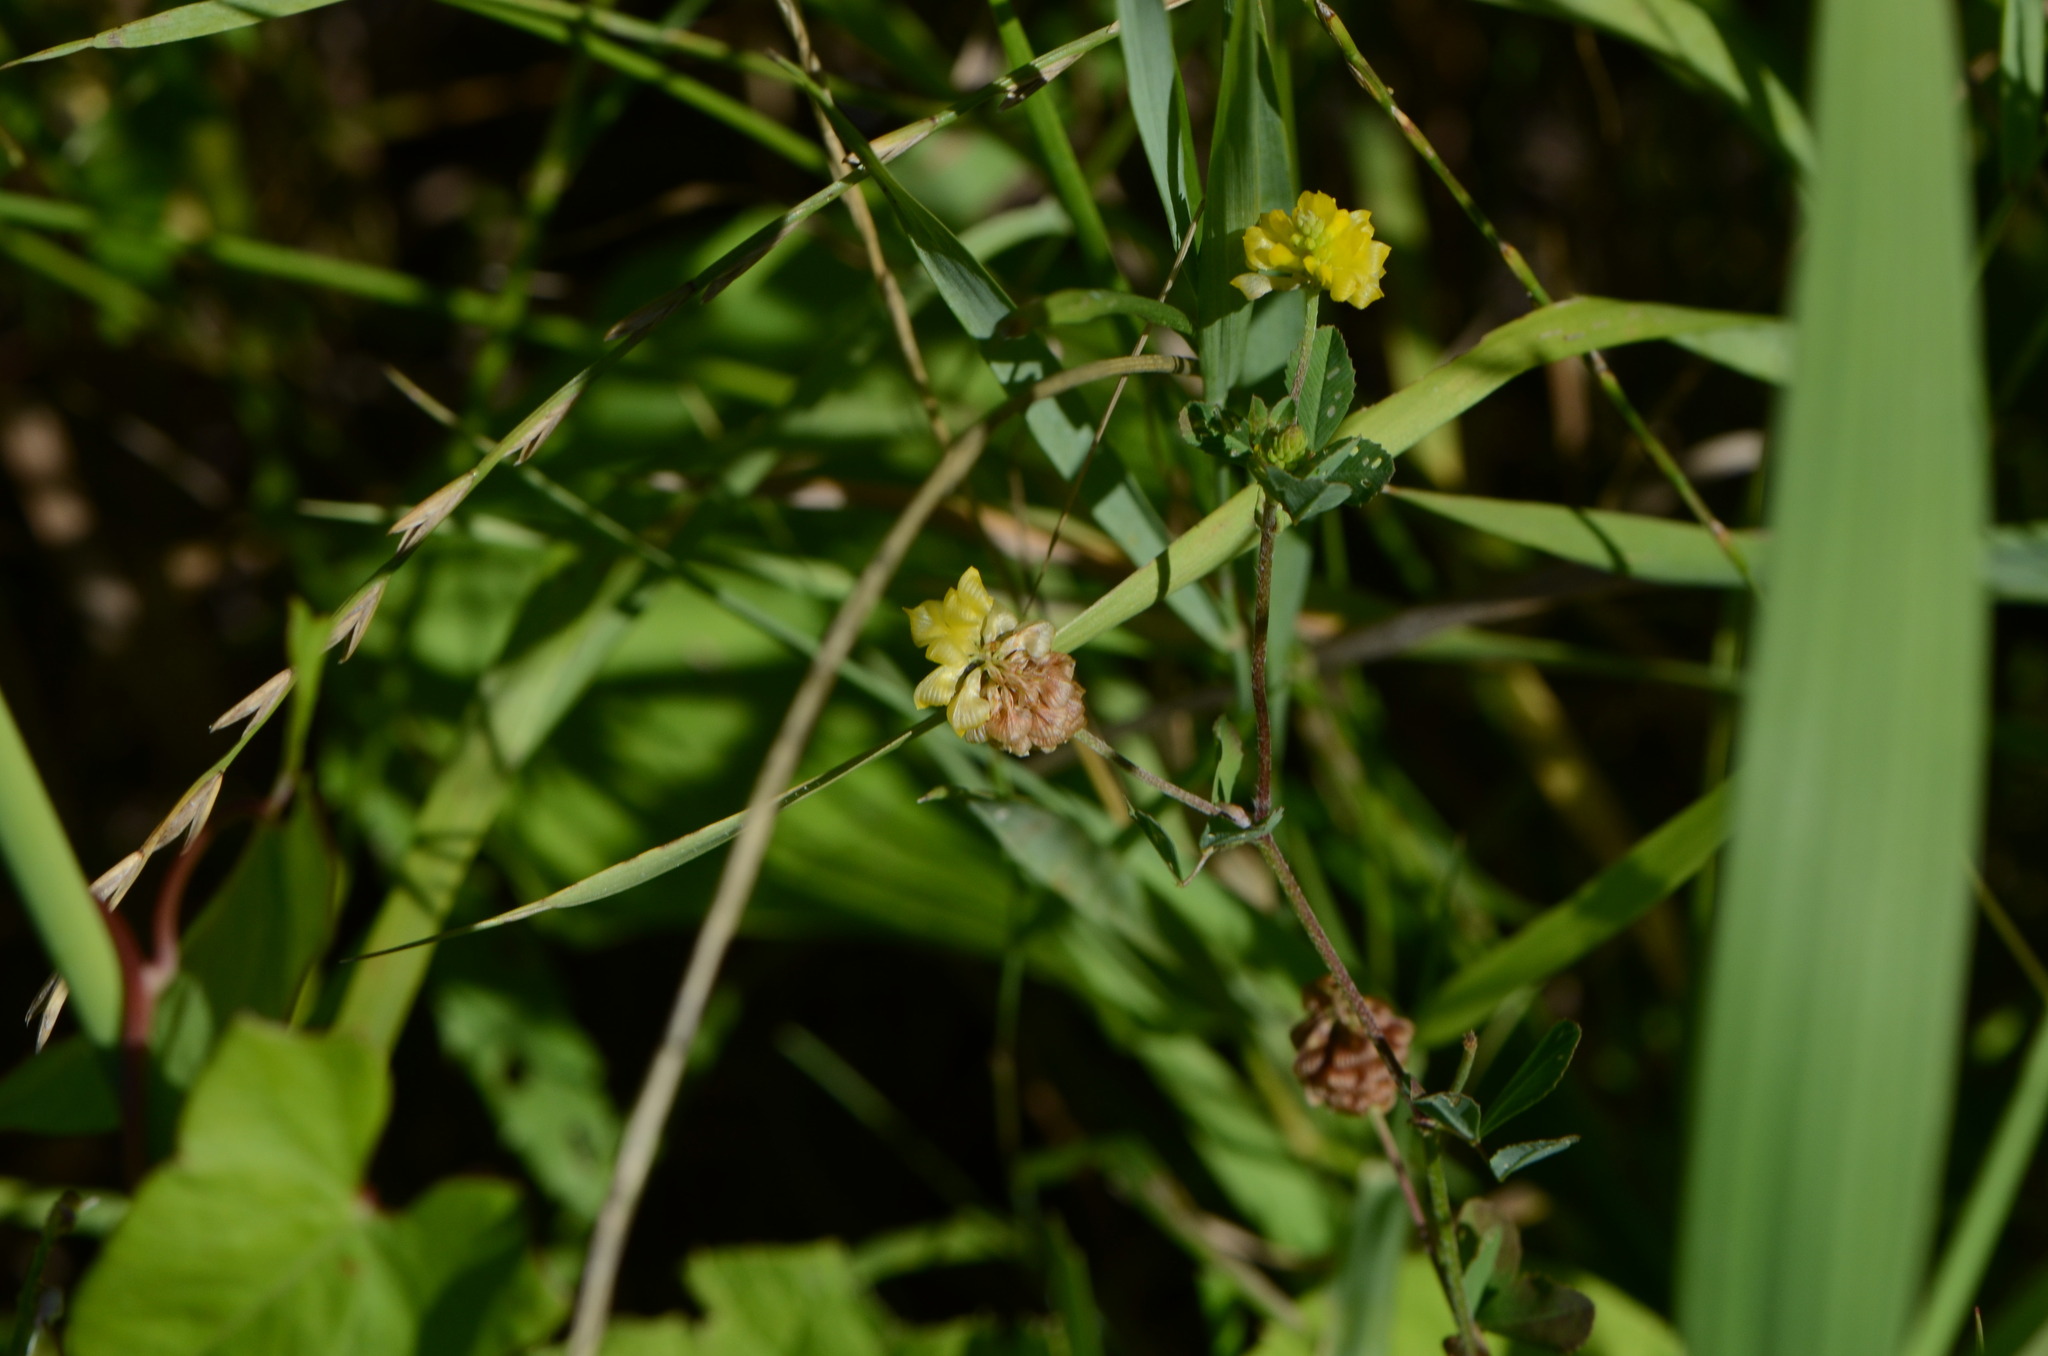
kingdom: Plantae
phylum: Tracheophyta
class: Magnoliopsida
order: Fabales
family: Fabaceae
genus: Trifolium
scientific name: Trifolium campestre
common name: Field clover
